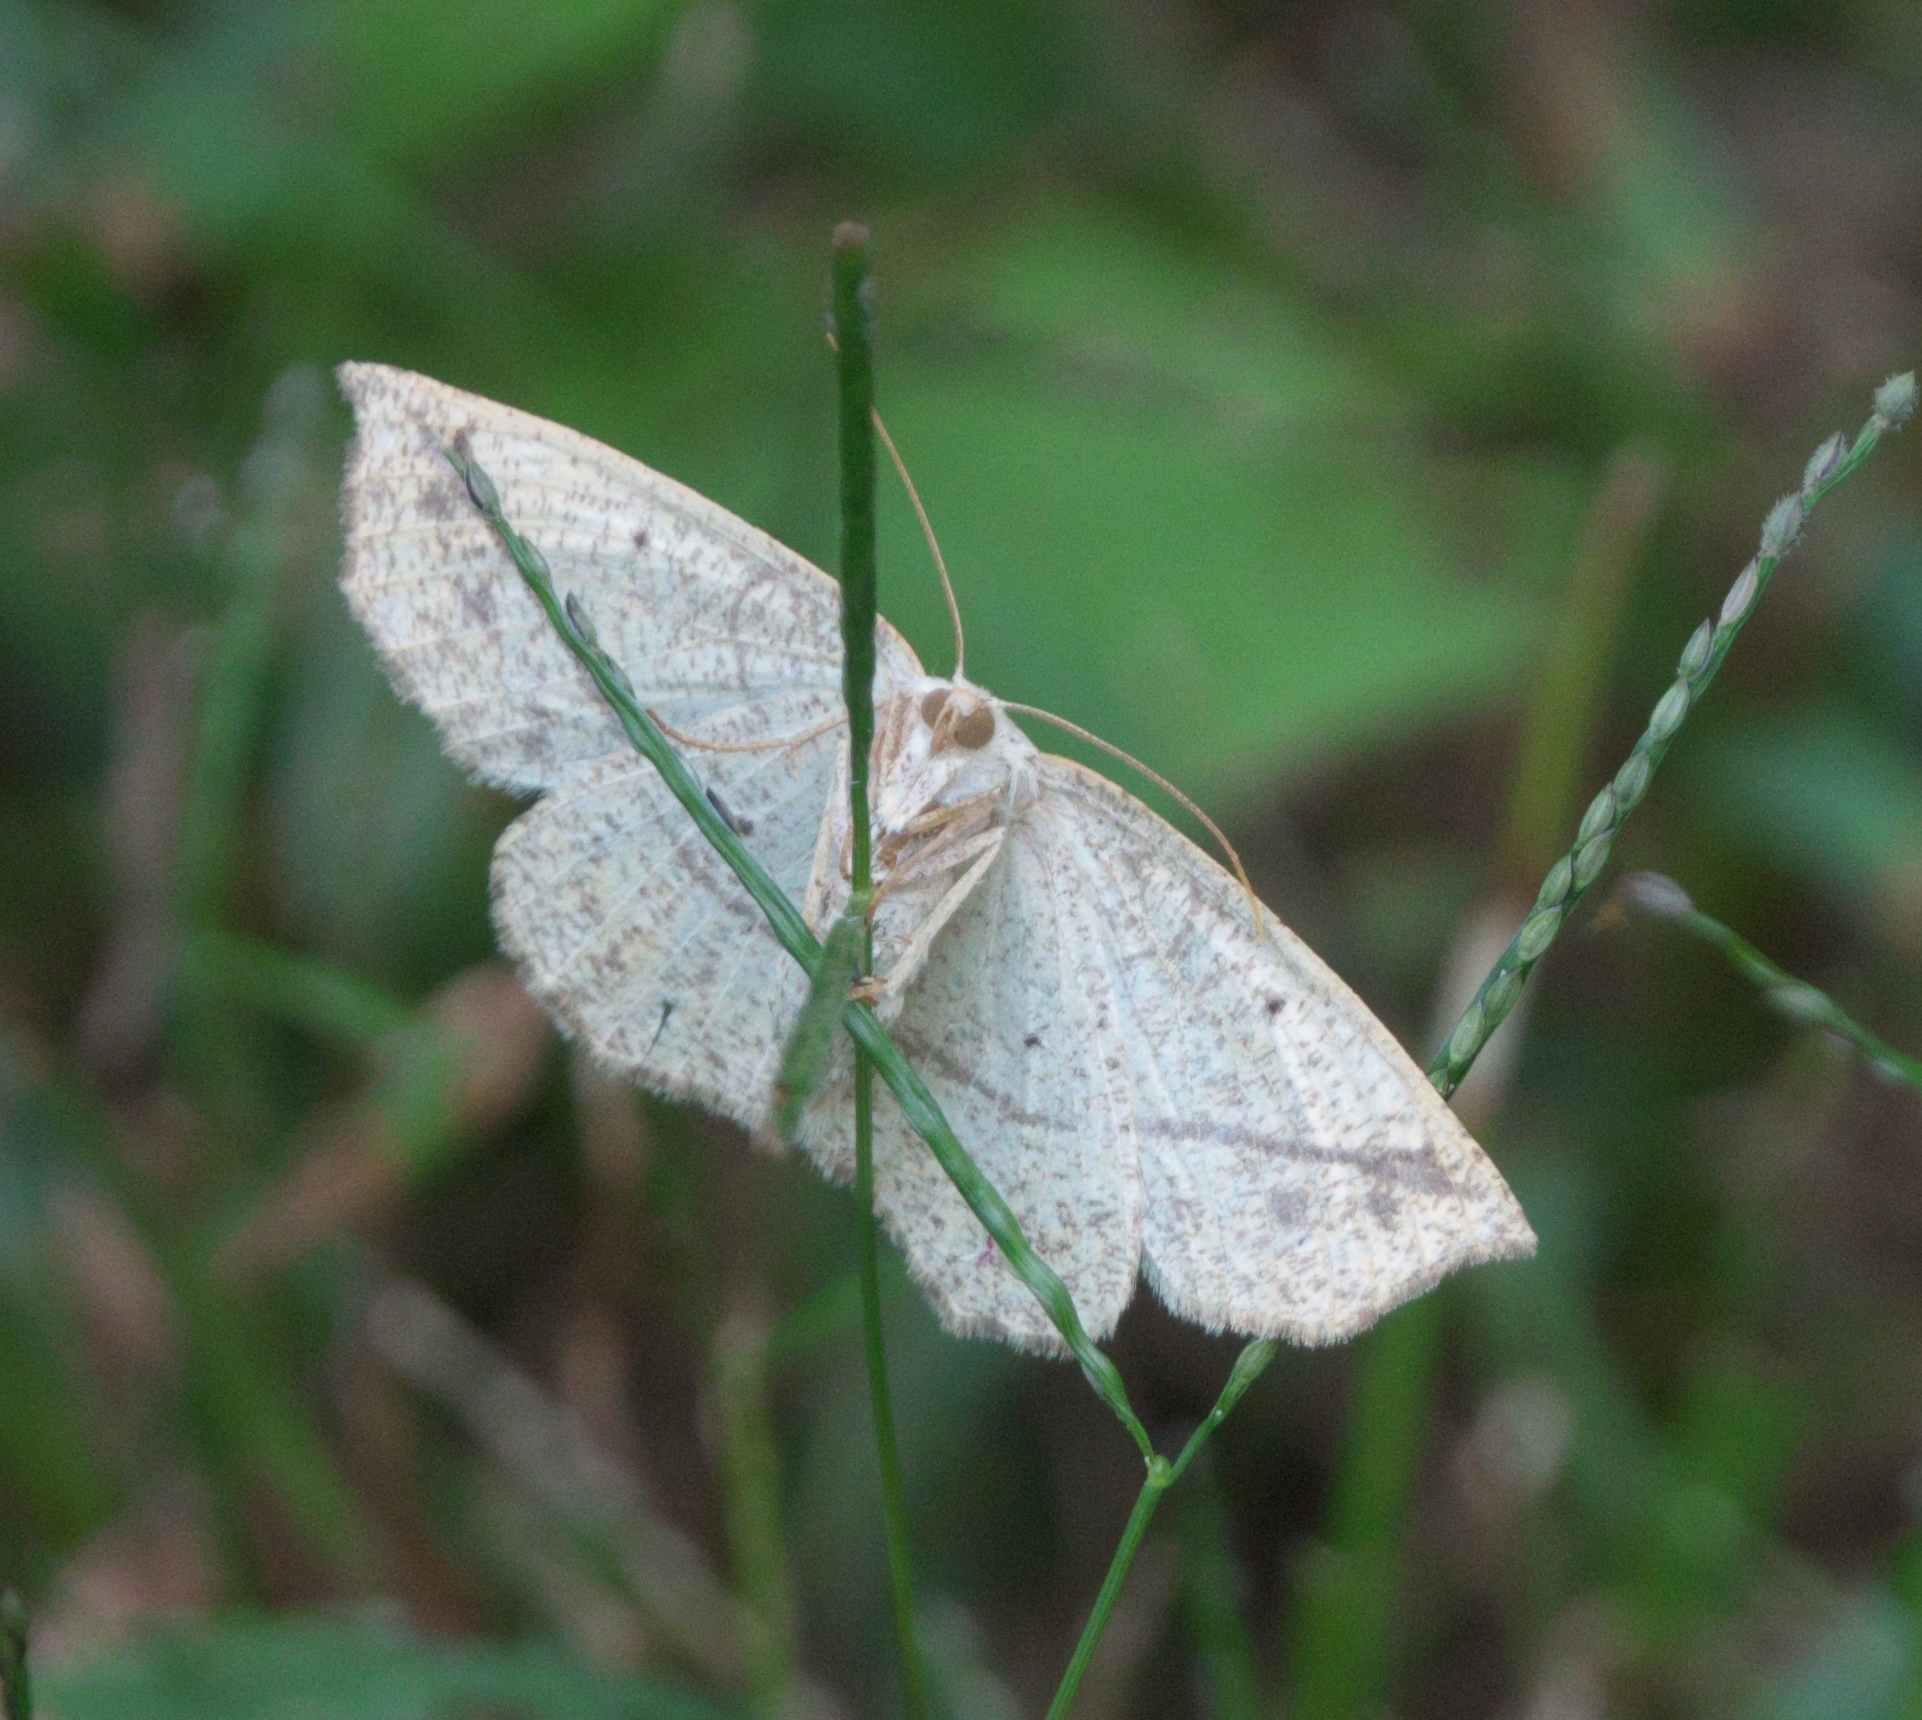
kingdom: Animalia
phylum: Arthropoda
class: Insecta
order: Lepidoptera
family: Geometridae
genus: Eusarca
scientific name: Eusarca confusaria
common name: Confused eusarca
